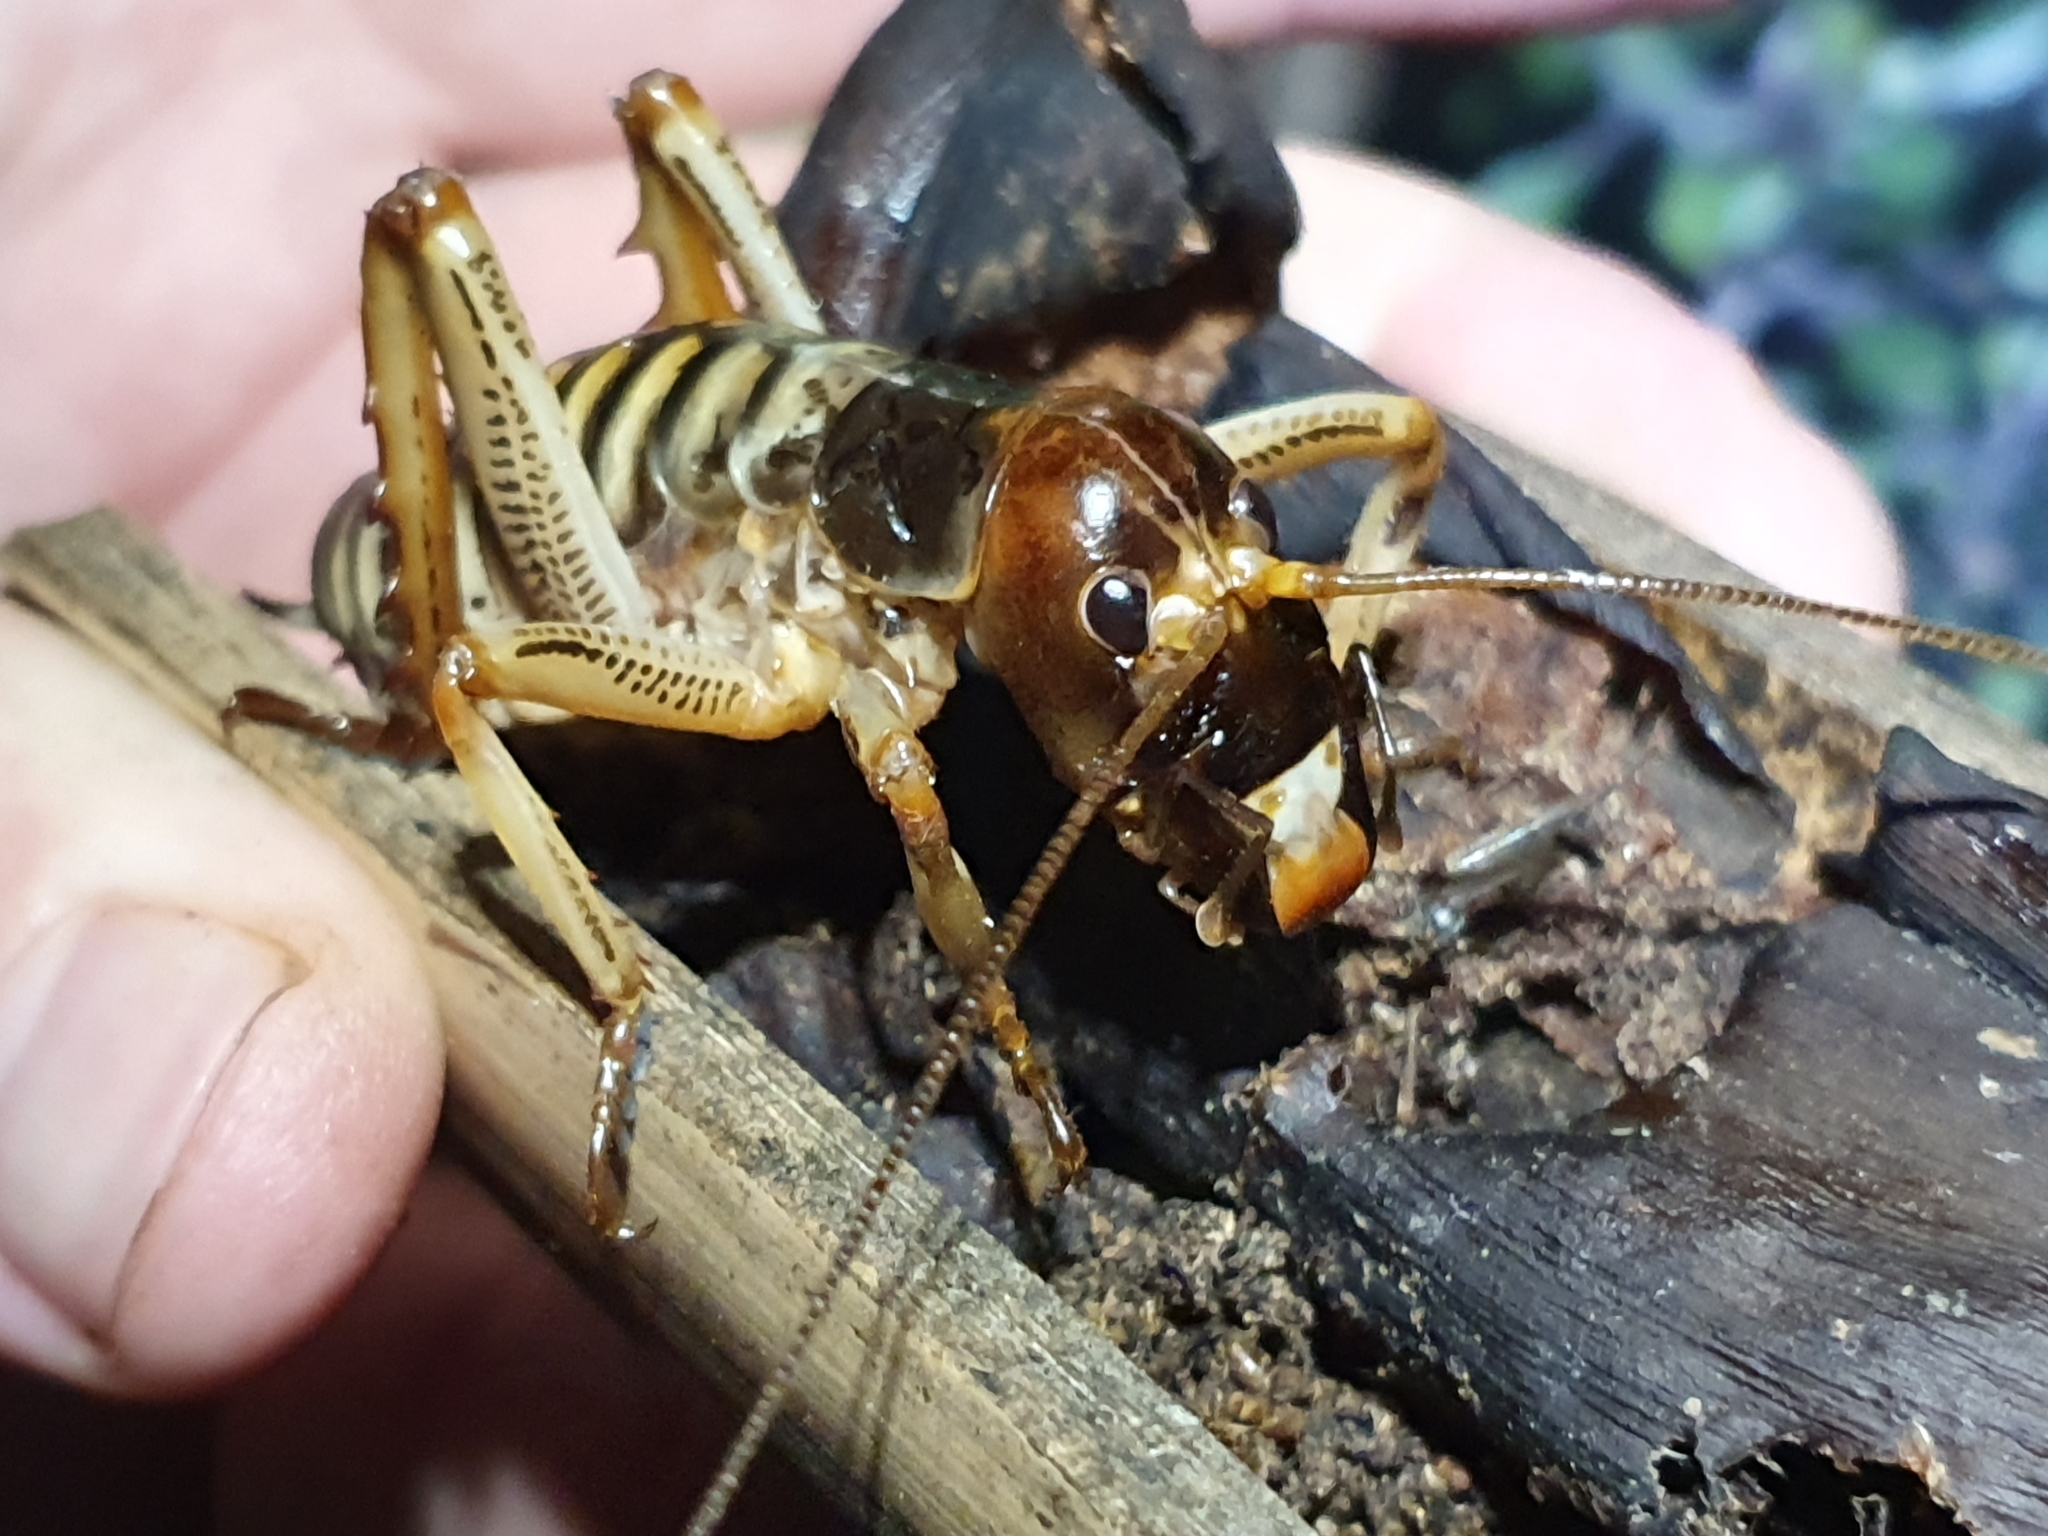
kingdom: Animalia
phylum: Arthropoda
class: Insecta
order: Orthoptera
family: Anostostomatidae
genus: Hemideina
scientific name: Hemideina crassidens
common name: Wellington tree weta
